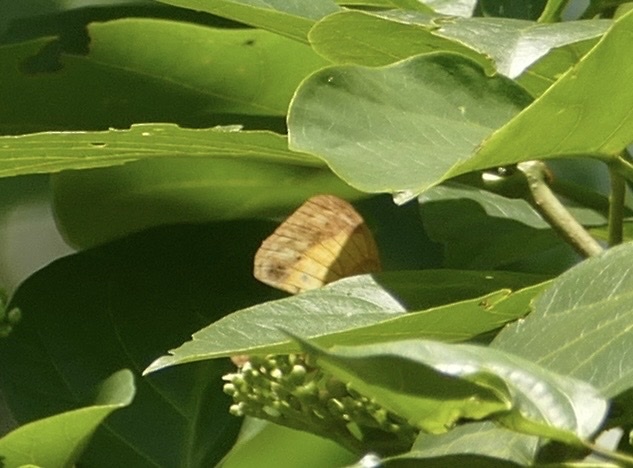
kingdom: Animalia
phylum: Arthropoda
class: Insecta
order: Lepidoptera
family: Nymphalidae
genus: Cupha
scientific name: Cupha prosope
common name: Bordered rustic
